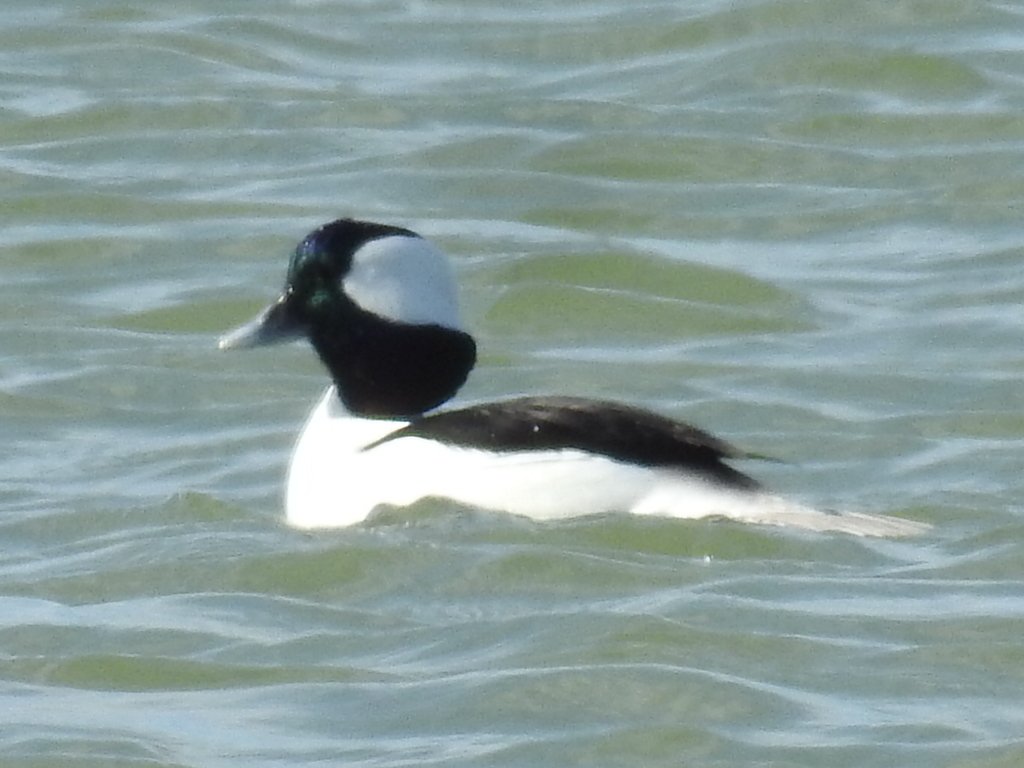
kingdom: Animalia
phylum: Chordata
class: Aves
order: Anseriformes
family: Anatidae
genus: Bucephala
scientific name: Bucephala albeola
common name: Bufflehead
